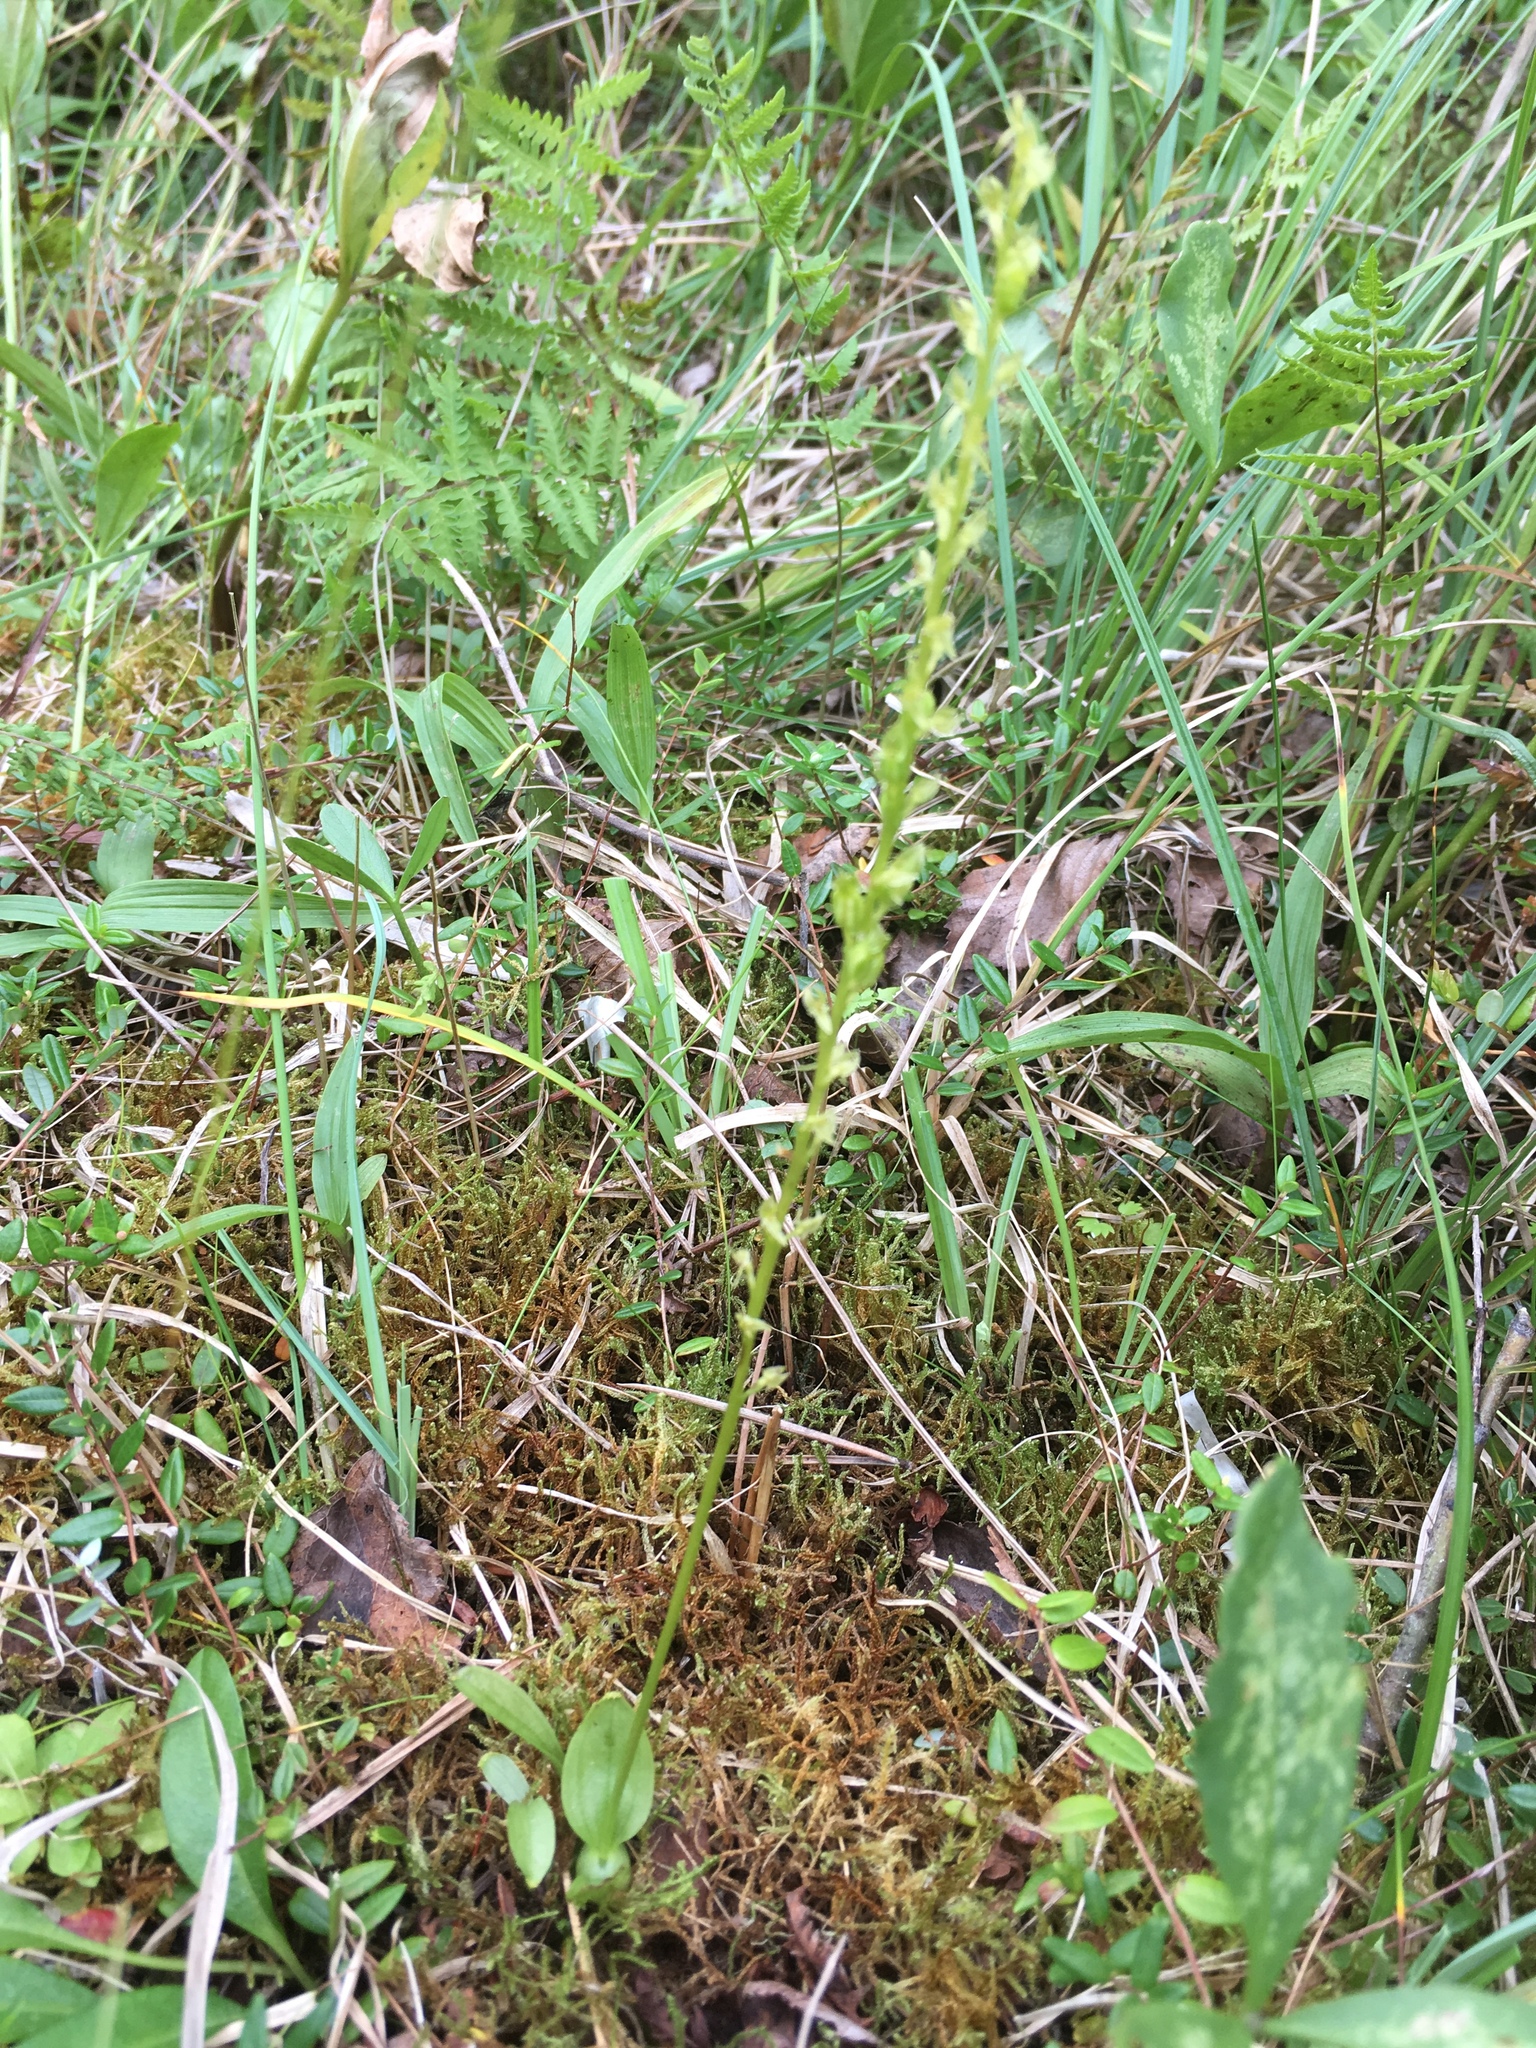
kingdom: Plantae
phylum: Tracheophyta
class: Liliopsida
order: Asparagales
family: Orchidaceae
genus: Hammarbya
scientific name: Hammarbya paludosa
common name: Bog orchid
